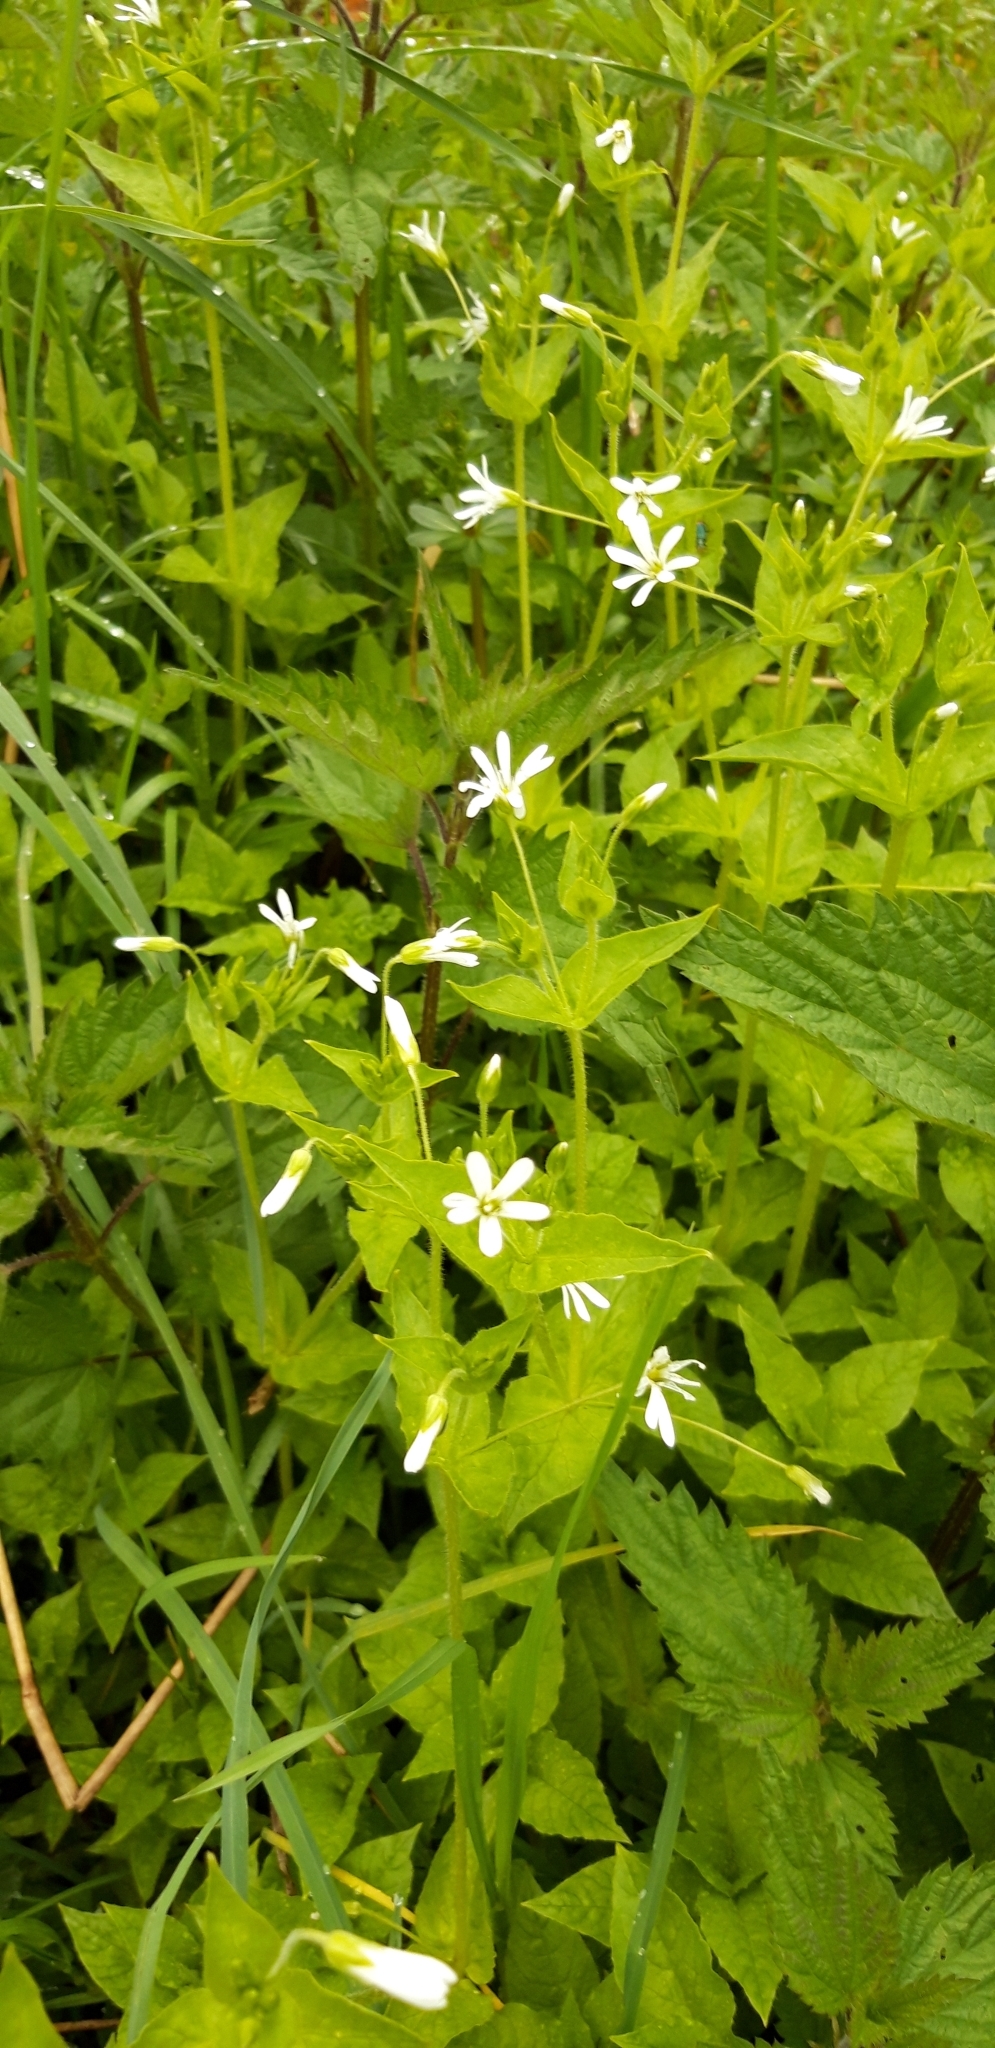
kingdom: Plantae
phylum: Tracheophyta
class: Magnoliopsida
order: Caryophyllales
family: Caryophyllaceae
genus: Stellaria
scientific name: Stellaria
